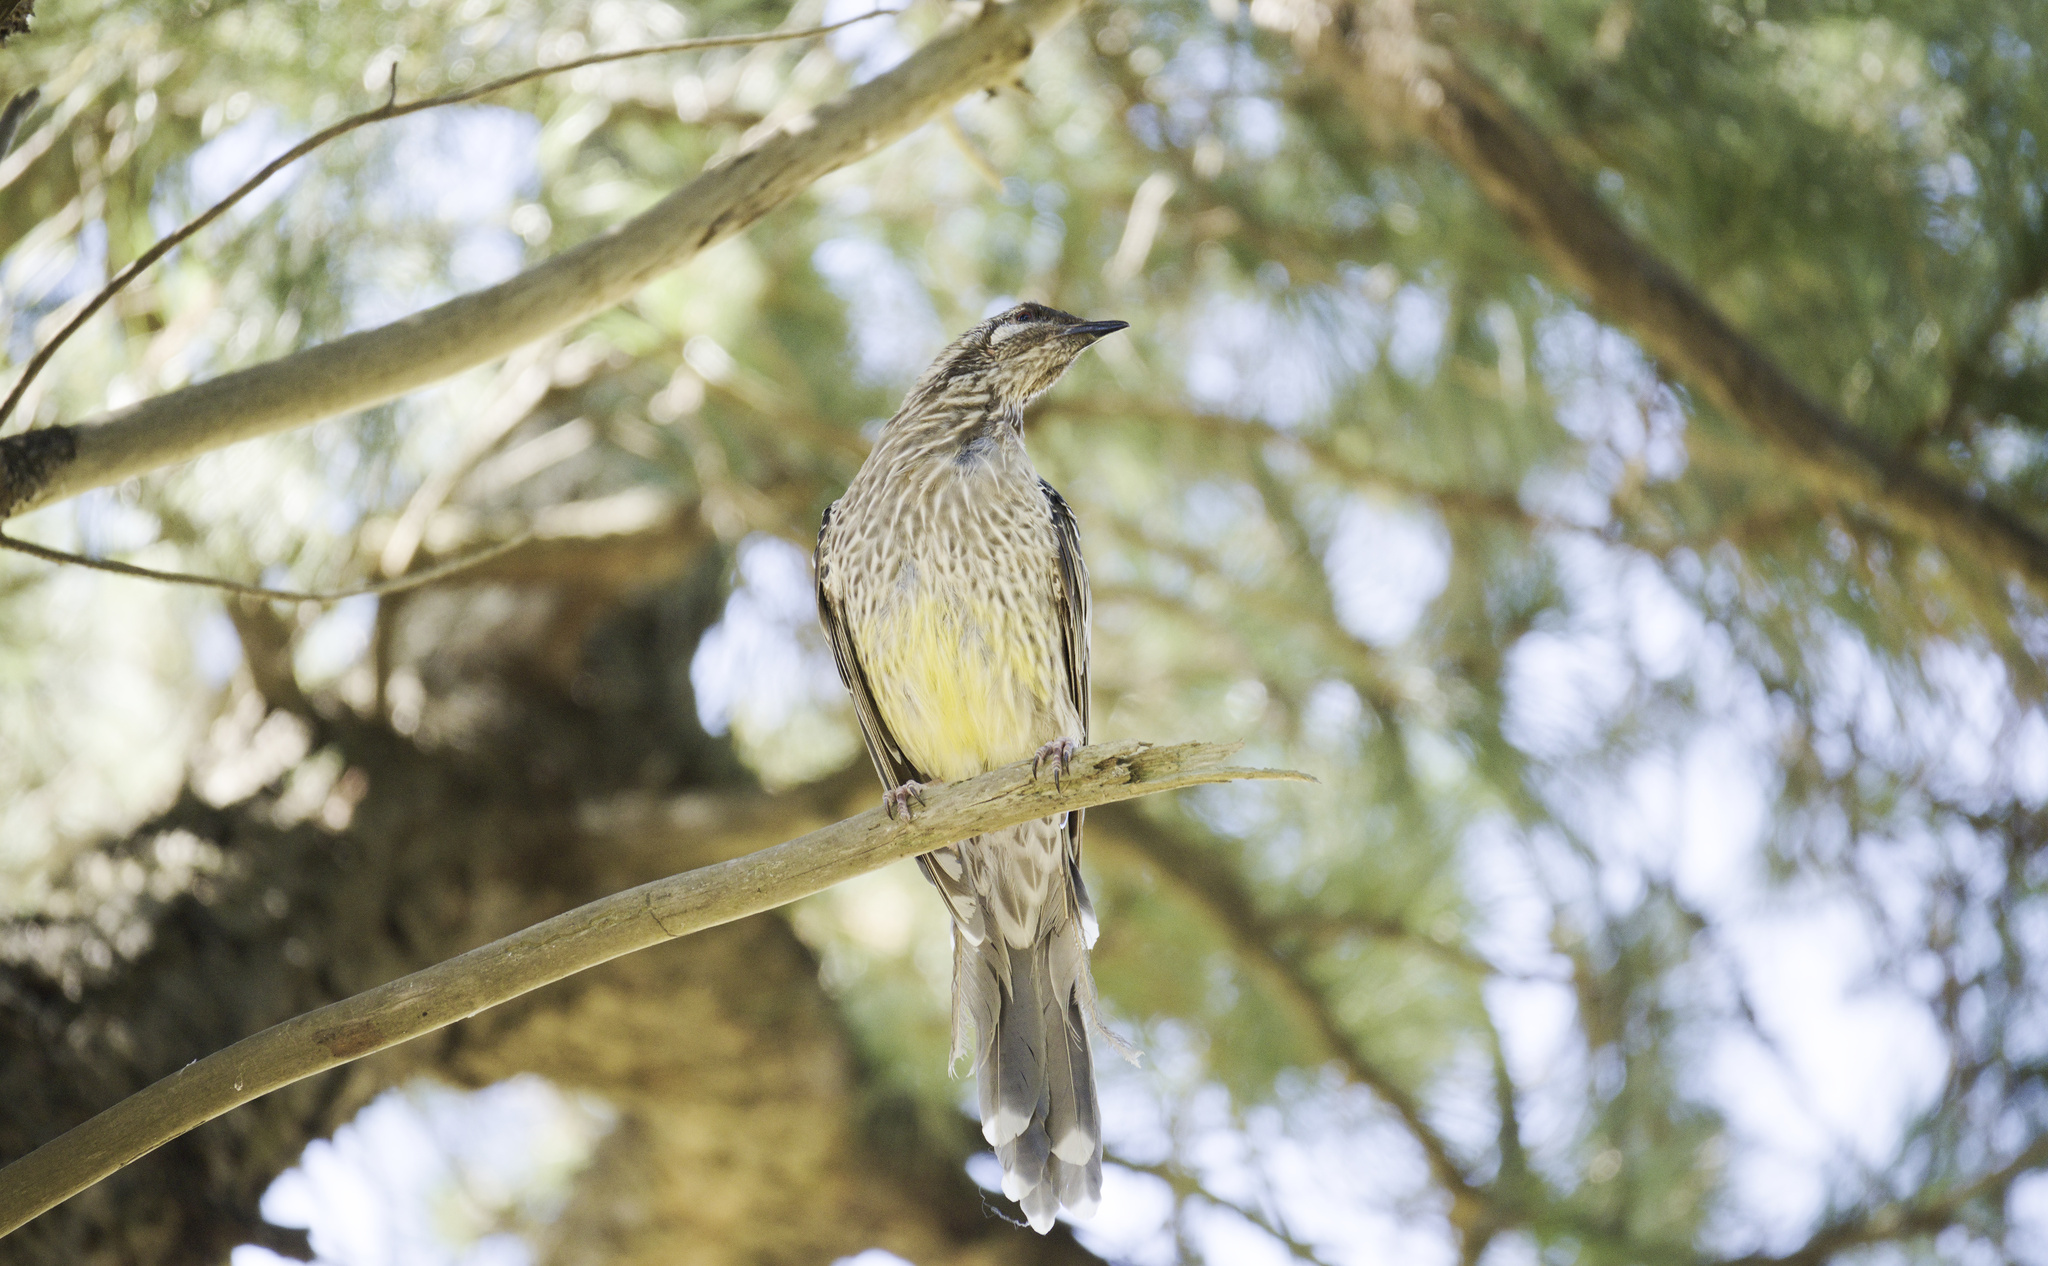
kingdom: Animalia
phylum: Chordata
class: Aves
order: Passeriformes
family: Meliphagidae
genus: Anthochaera
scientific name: Anthochaera carunculata
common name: Red wattlebird
